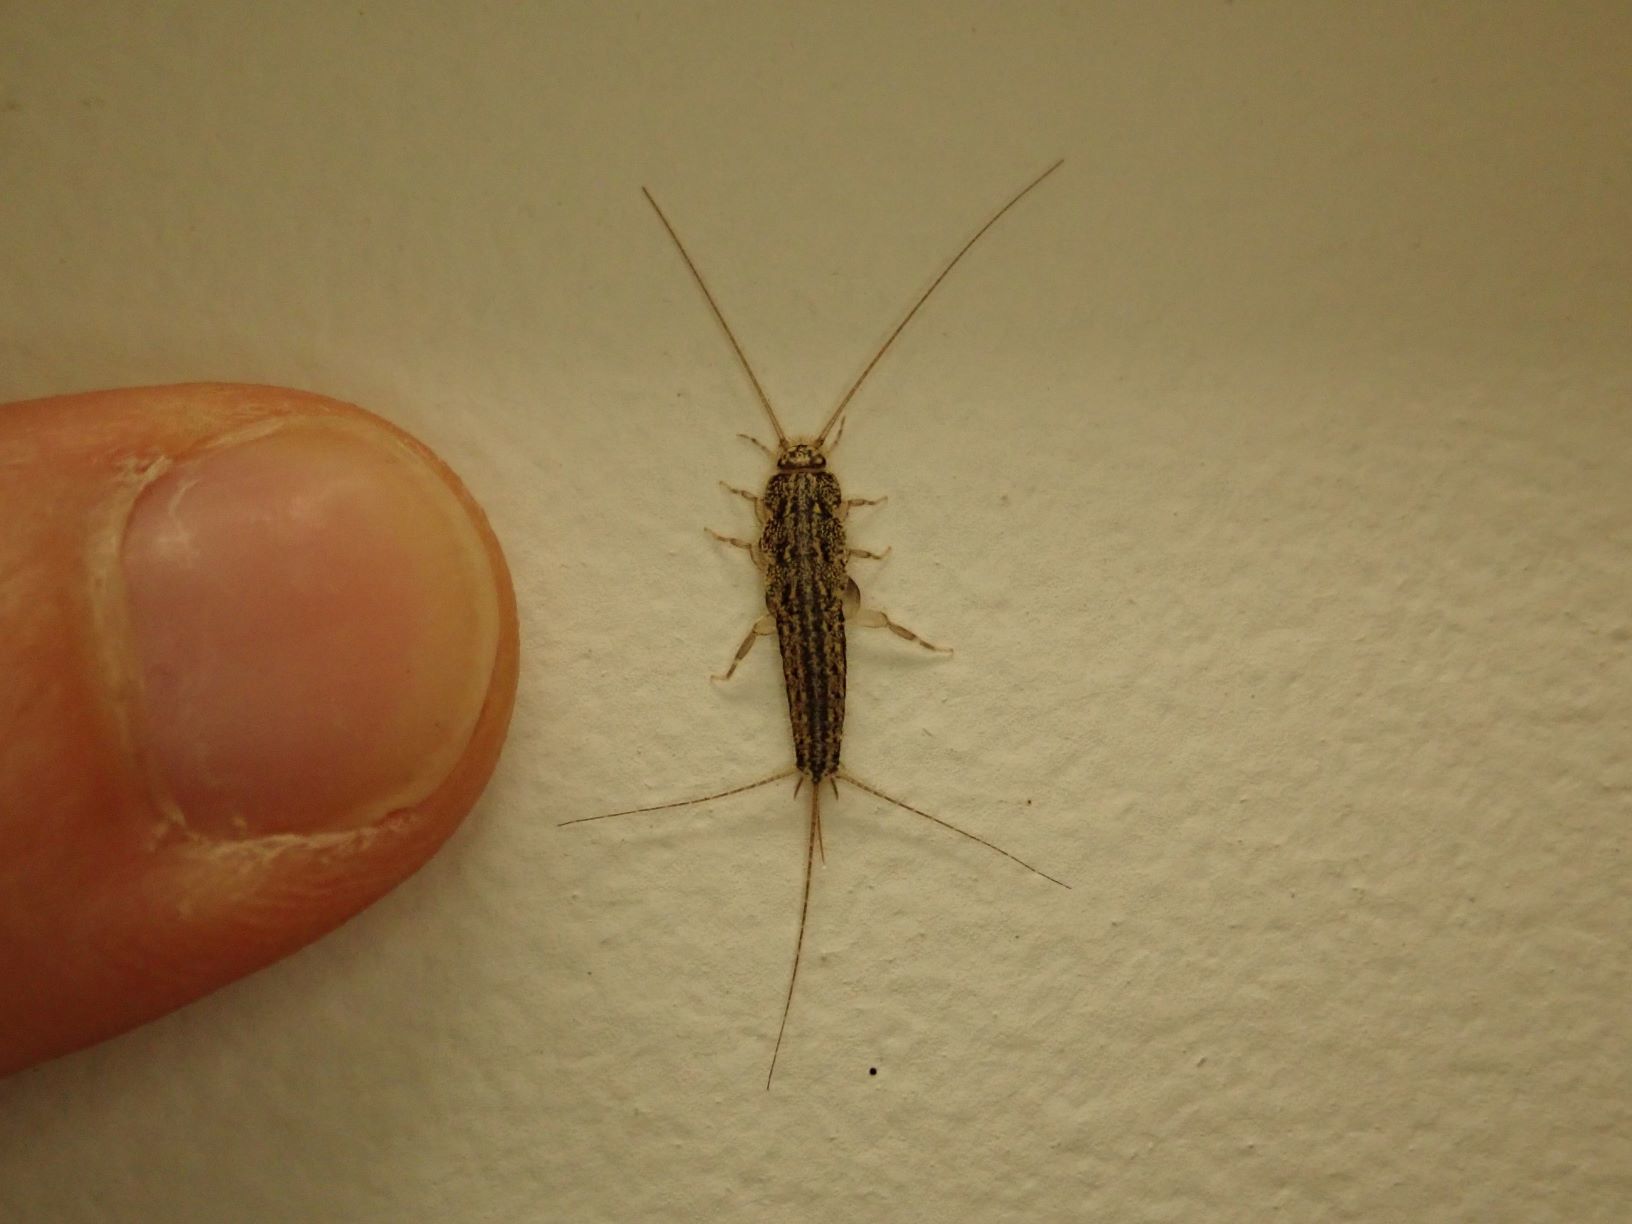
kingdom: Animalia
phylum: Arthropoda
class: Insecta
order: Zygentoma
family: Lepismatidae
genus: Ctenolepisma
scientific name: Ctenolepisma lineata
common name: Four-lined silverfish
